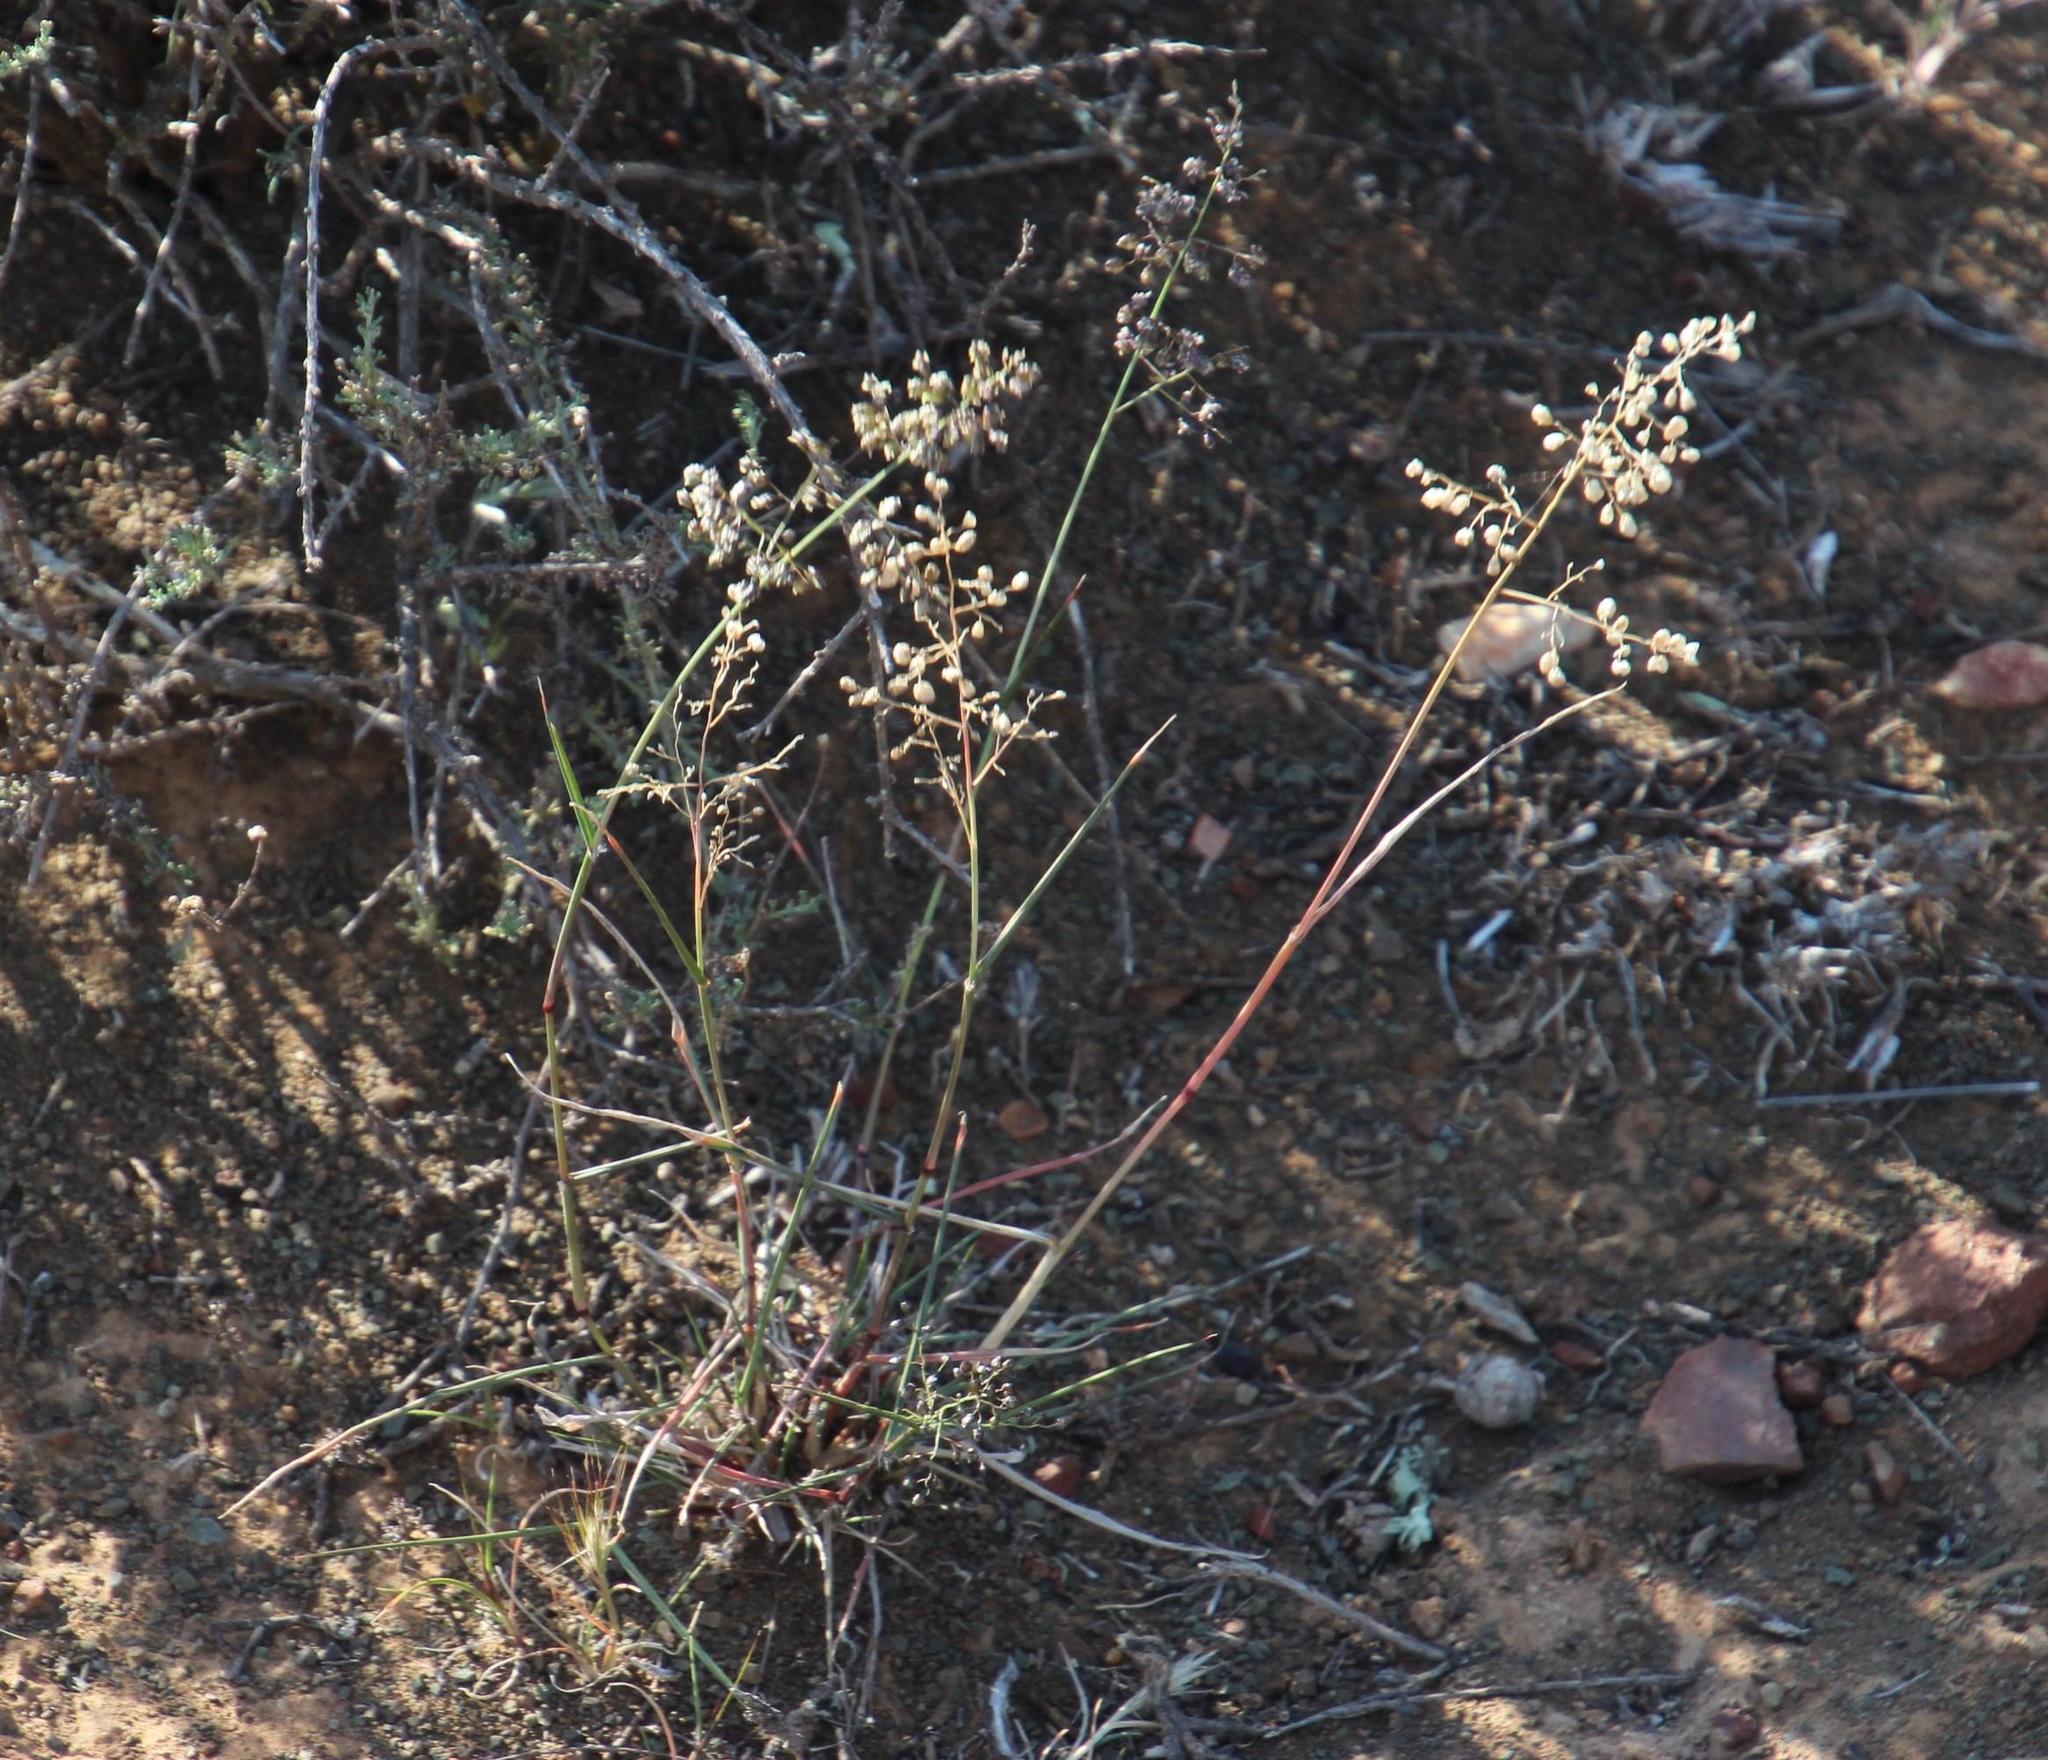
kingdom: Plantae
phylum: Tracheophyta
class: Liliopsida
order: Poales
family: Poaceae
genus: Eragrostis
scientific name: Eragrostis obtusa
